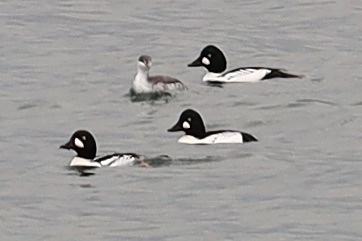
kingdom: Animalia
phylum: Chordata
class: Aves
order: Anseriformes
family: Anatidae
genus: Bucephala
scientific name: Bucephala islandica
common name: Barrow's goldeneye
